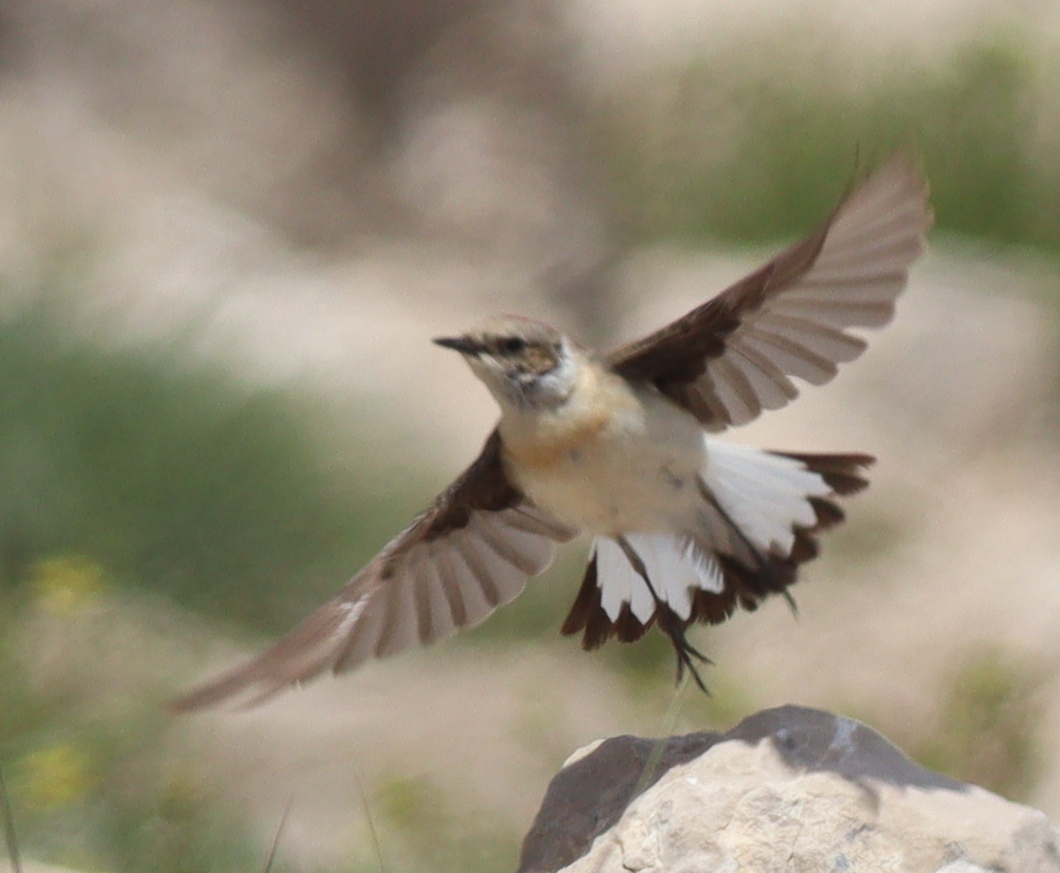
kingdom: Animalia
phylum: Chordata
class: Aves
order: Passeriformes
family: Muscicapidae
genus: Oenanthe
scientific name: Oenanthe hispanica
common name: Black-eared wheatear
